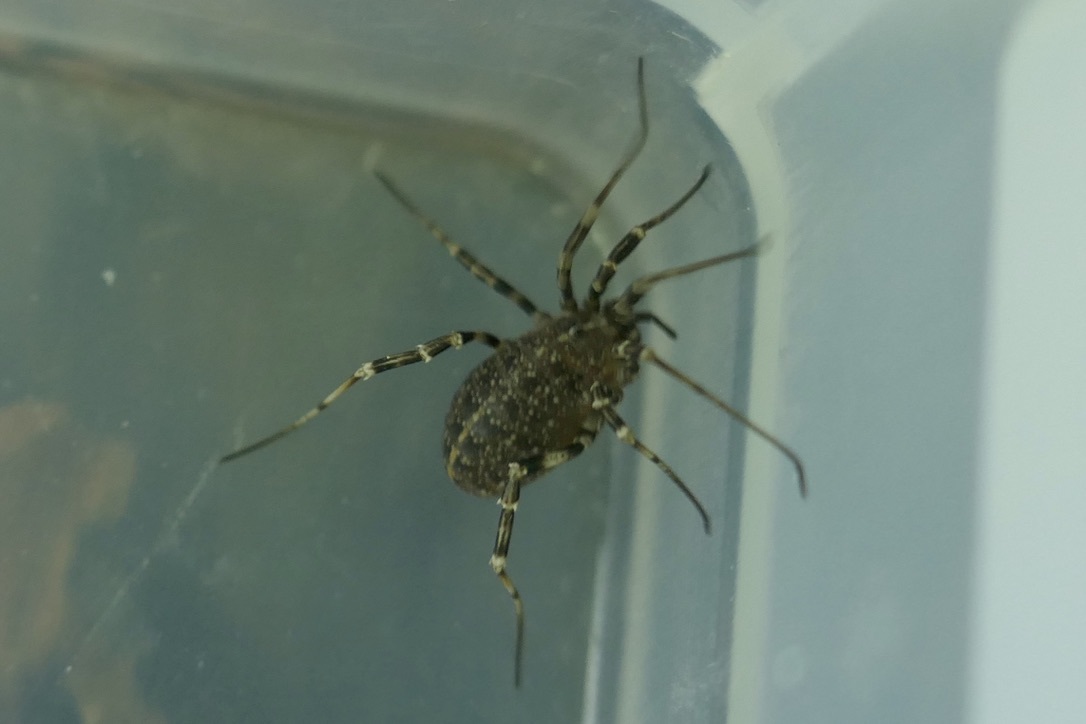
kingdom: Animalia
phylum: Arthropoda
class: Arachnida
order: Opiliones
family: Phalangiidae
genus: Egaenus
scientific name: Egaenus convexus
